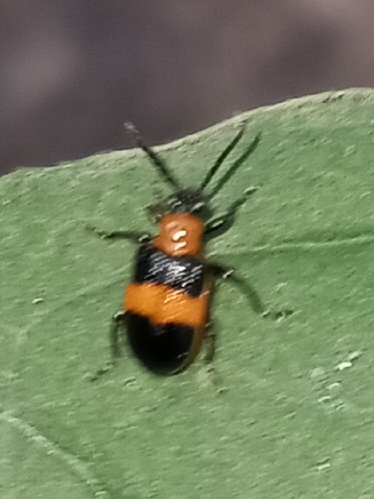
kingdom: Animalia
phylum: Arthropoda
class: Insecta
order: Coleoptera
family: Chrysomelidae
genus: Lema
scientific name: Lema solani
